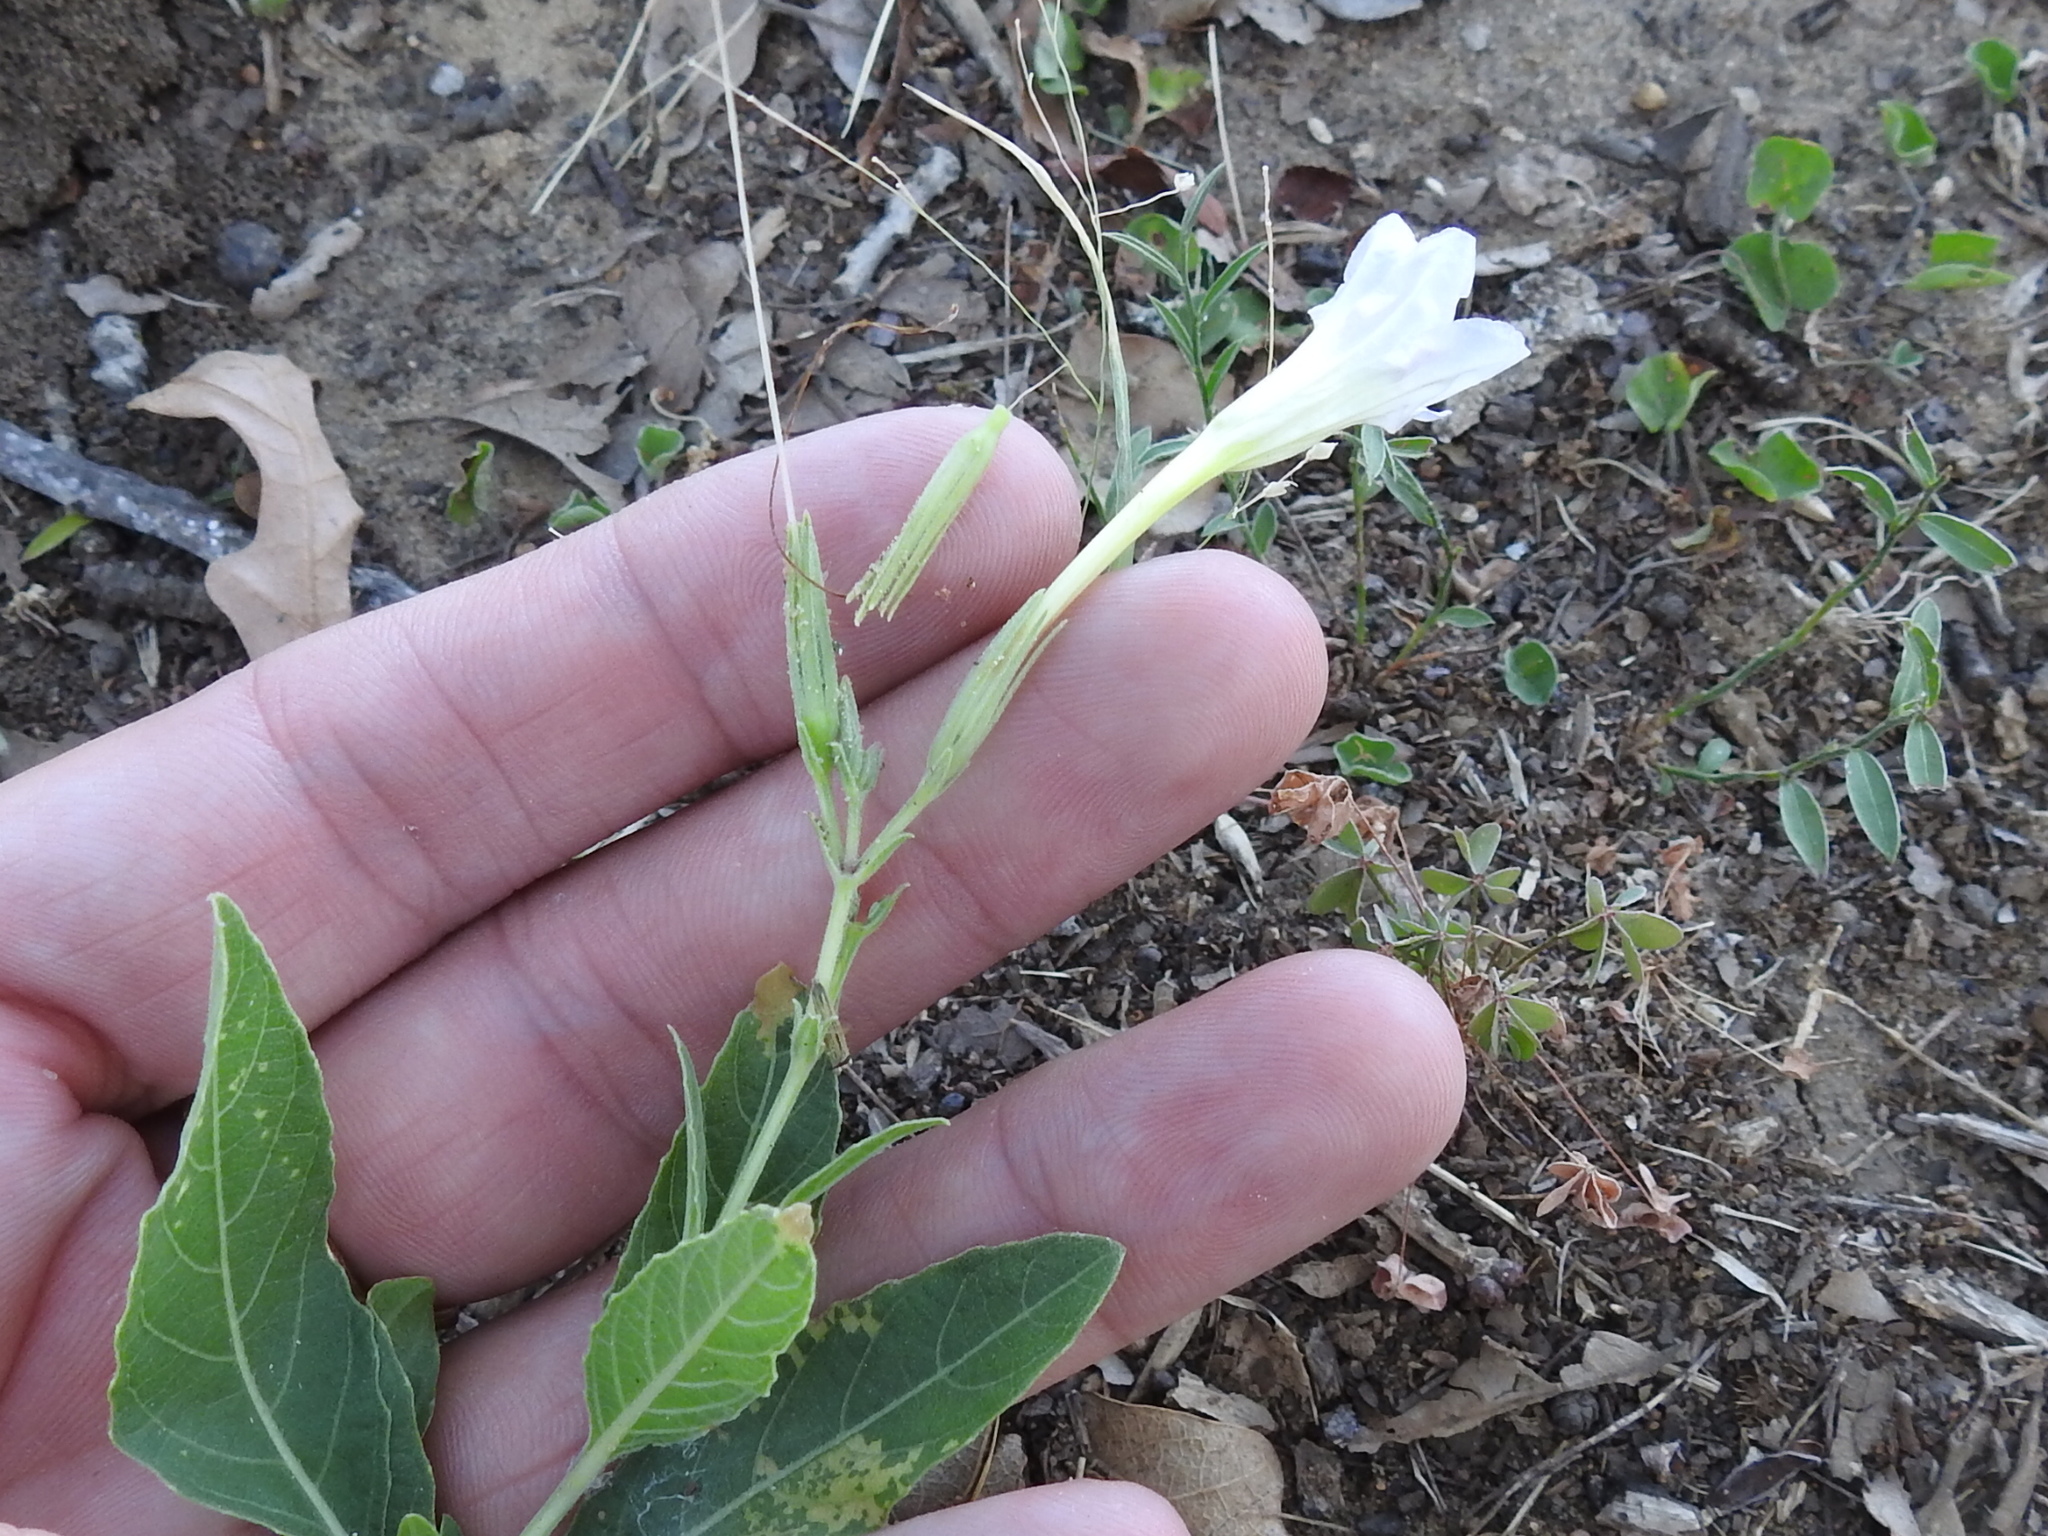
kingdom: Plantae
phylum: Tracheophyta
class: Magnoliopsida
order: Lamiales
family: Acanthaceae
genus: Ruellia
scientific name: Ruellia metziae
